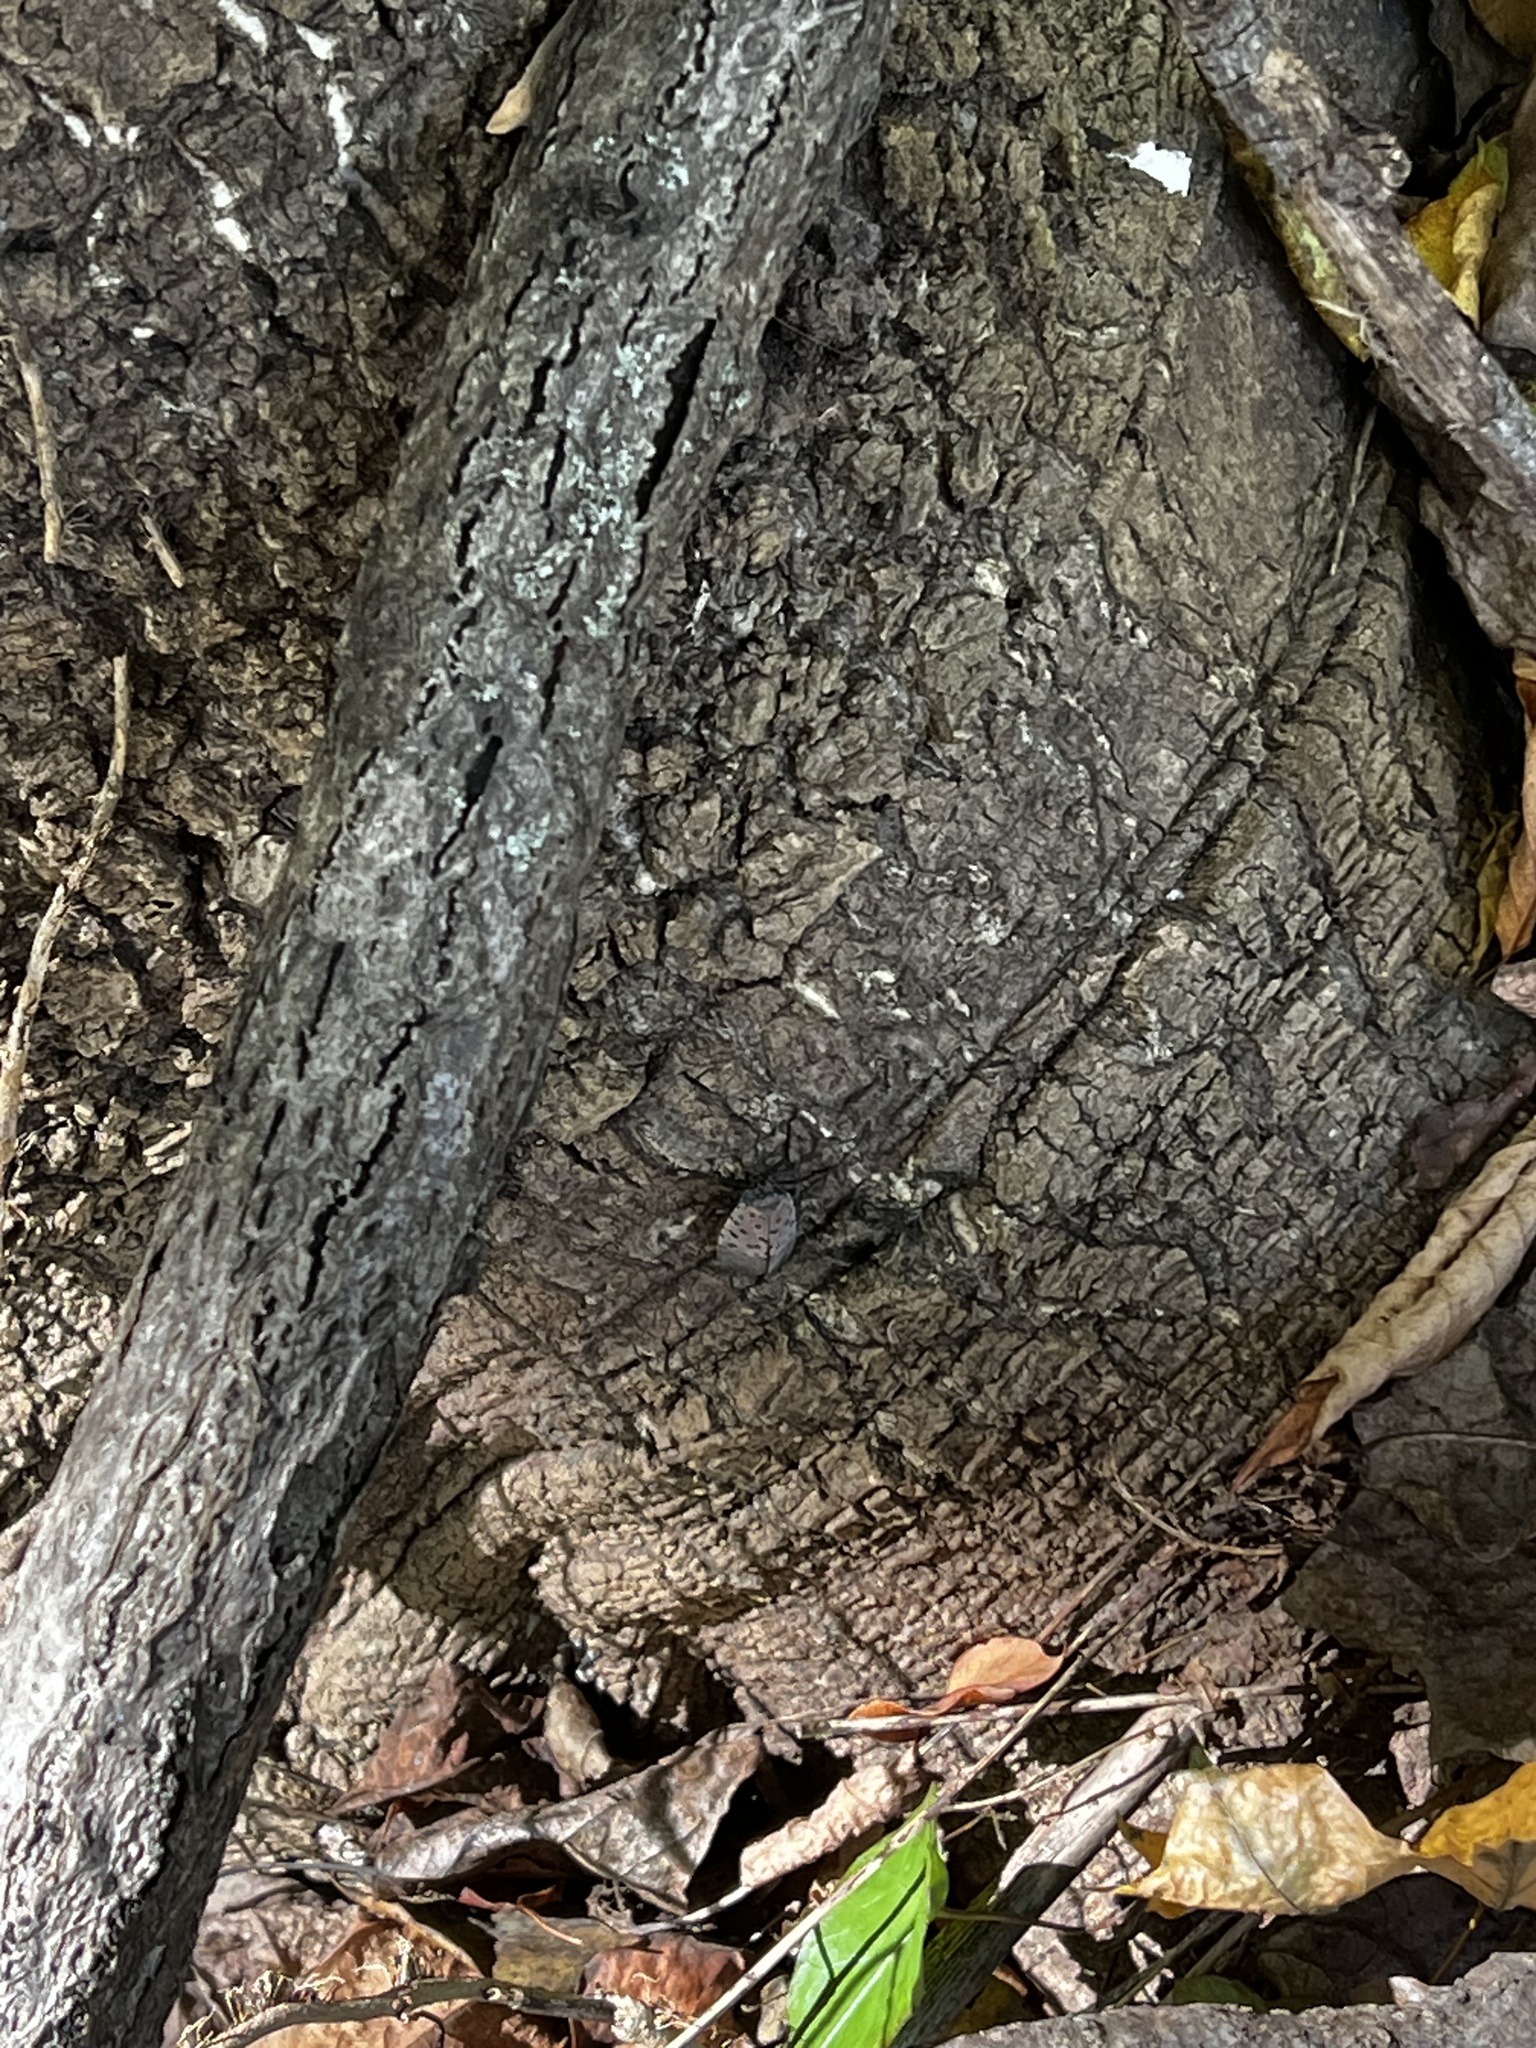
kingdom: Animalia
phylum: Arthropoda
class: Insecta
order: Hemiptera
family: Fulgoridae
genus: Lycorma
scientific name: Lycorma delicatula
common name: Spotted lanternfly
